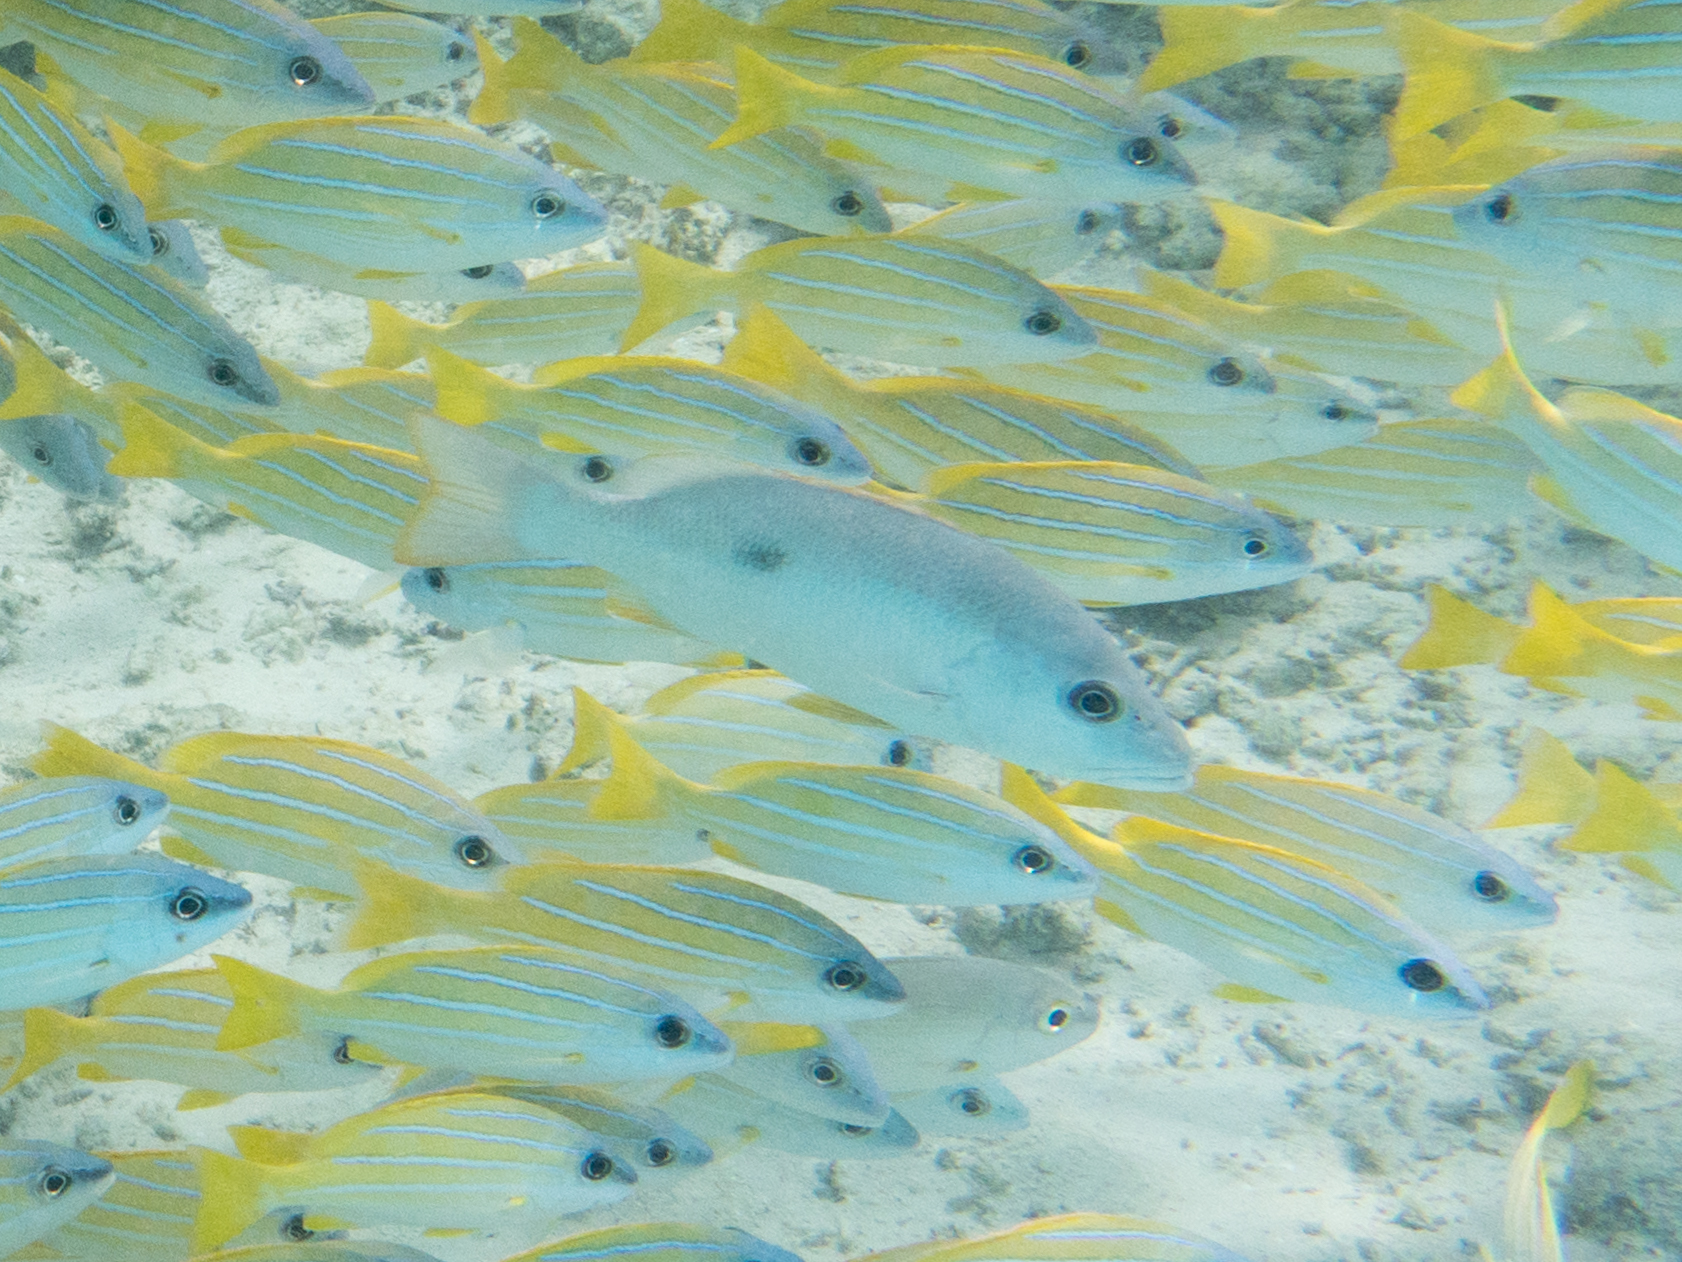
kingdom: Animalia
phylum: Chordata
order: Perciformes
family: Lutjanidae
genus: Lutjanus
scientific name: Lutjanus monostigma
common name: Onespot snapper
